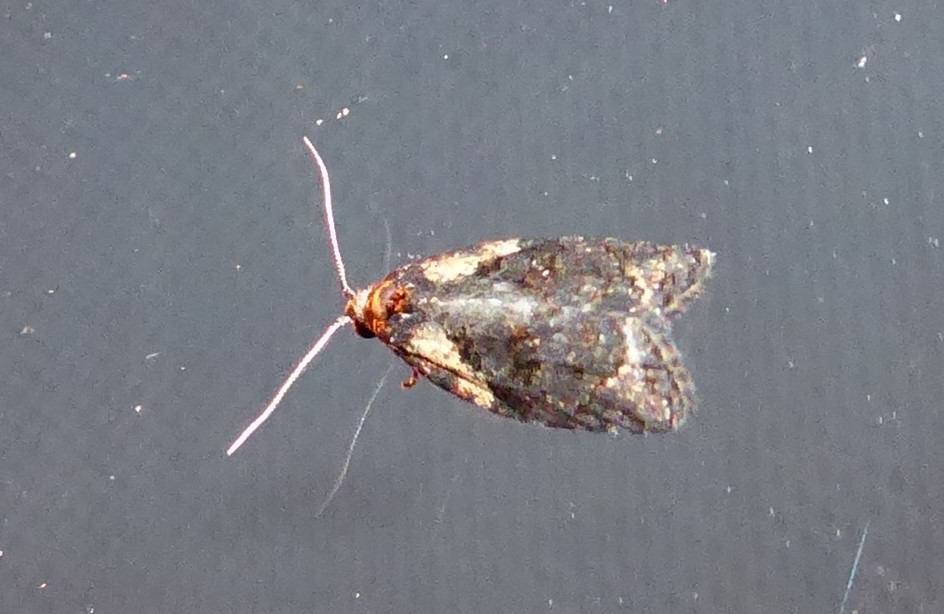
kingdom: Animalia
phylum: Arthropoda
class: Insecta
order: Lepidoptera
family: Tortricidae
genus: Capua
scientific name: Capua intractana
